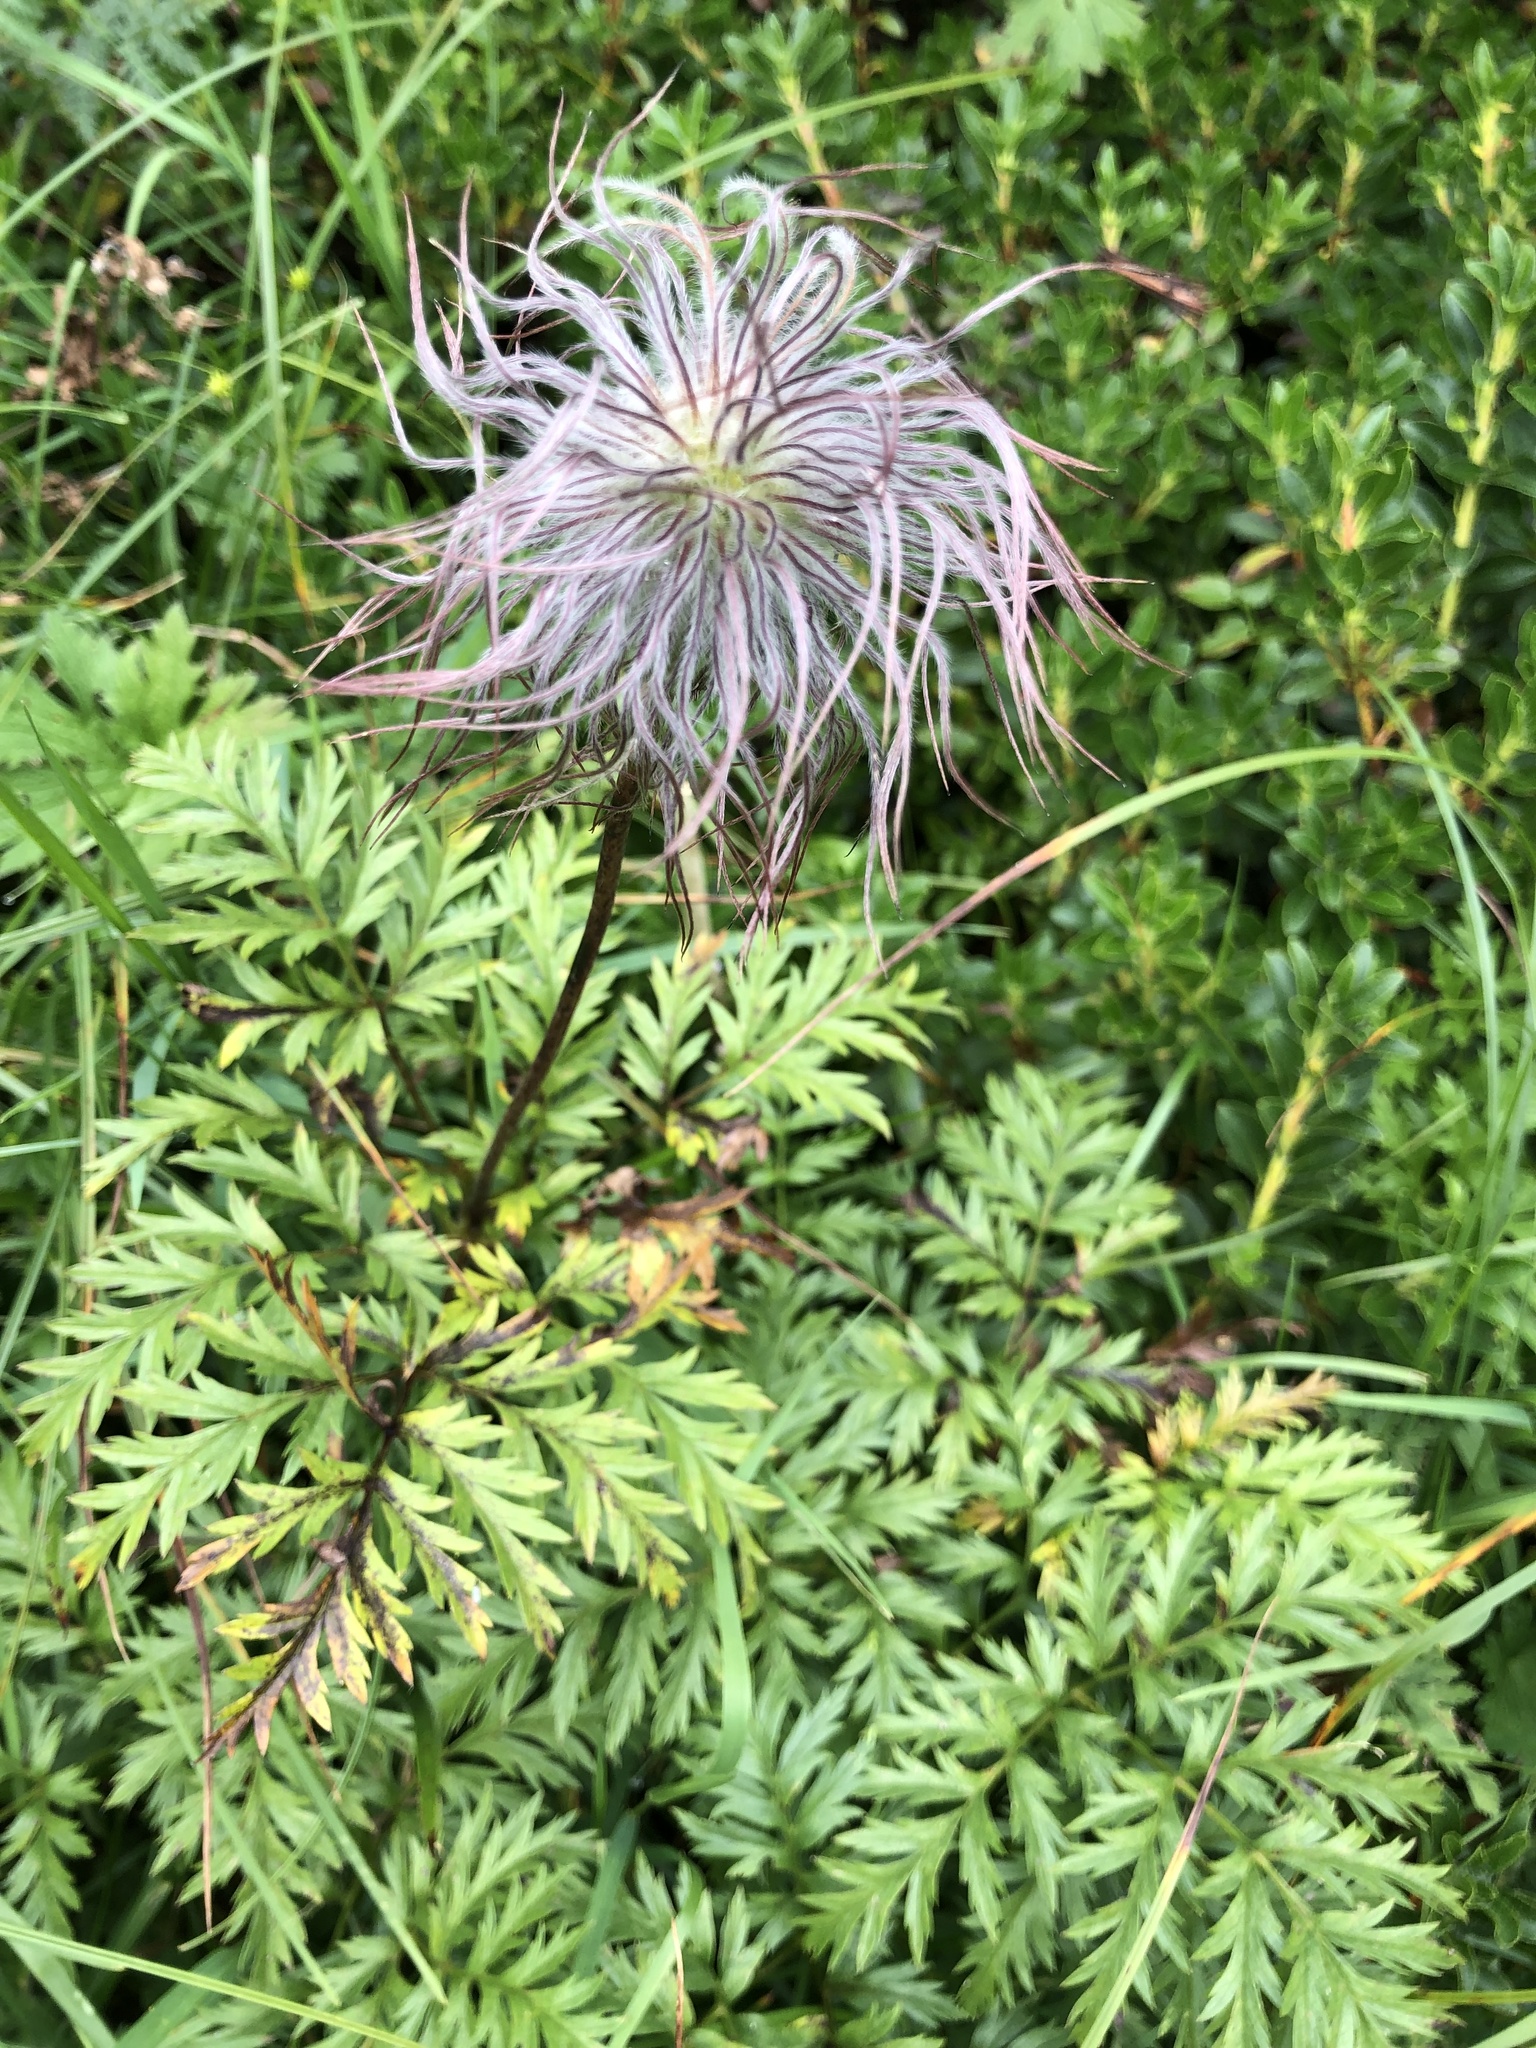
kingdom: Plantae
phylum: Tracheophyta
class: Magnoliopsida
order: Ranunculales
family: Ranunculaceae
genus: Pulsatilla
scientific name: Pulsatilla alpina
